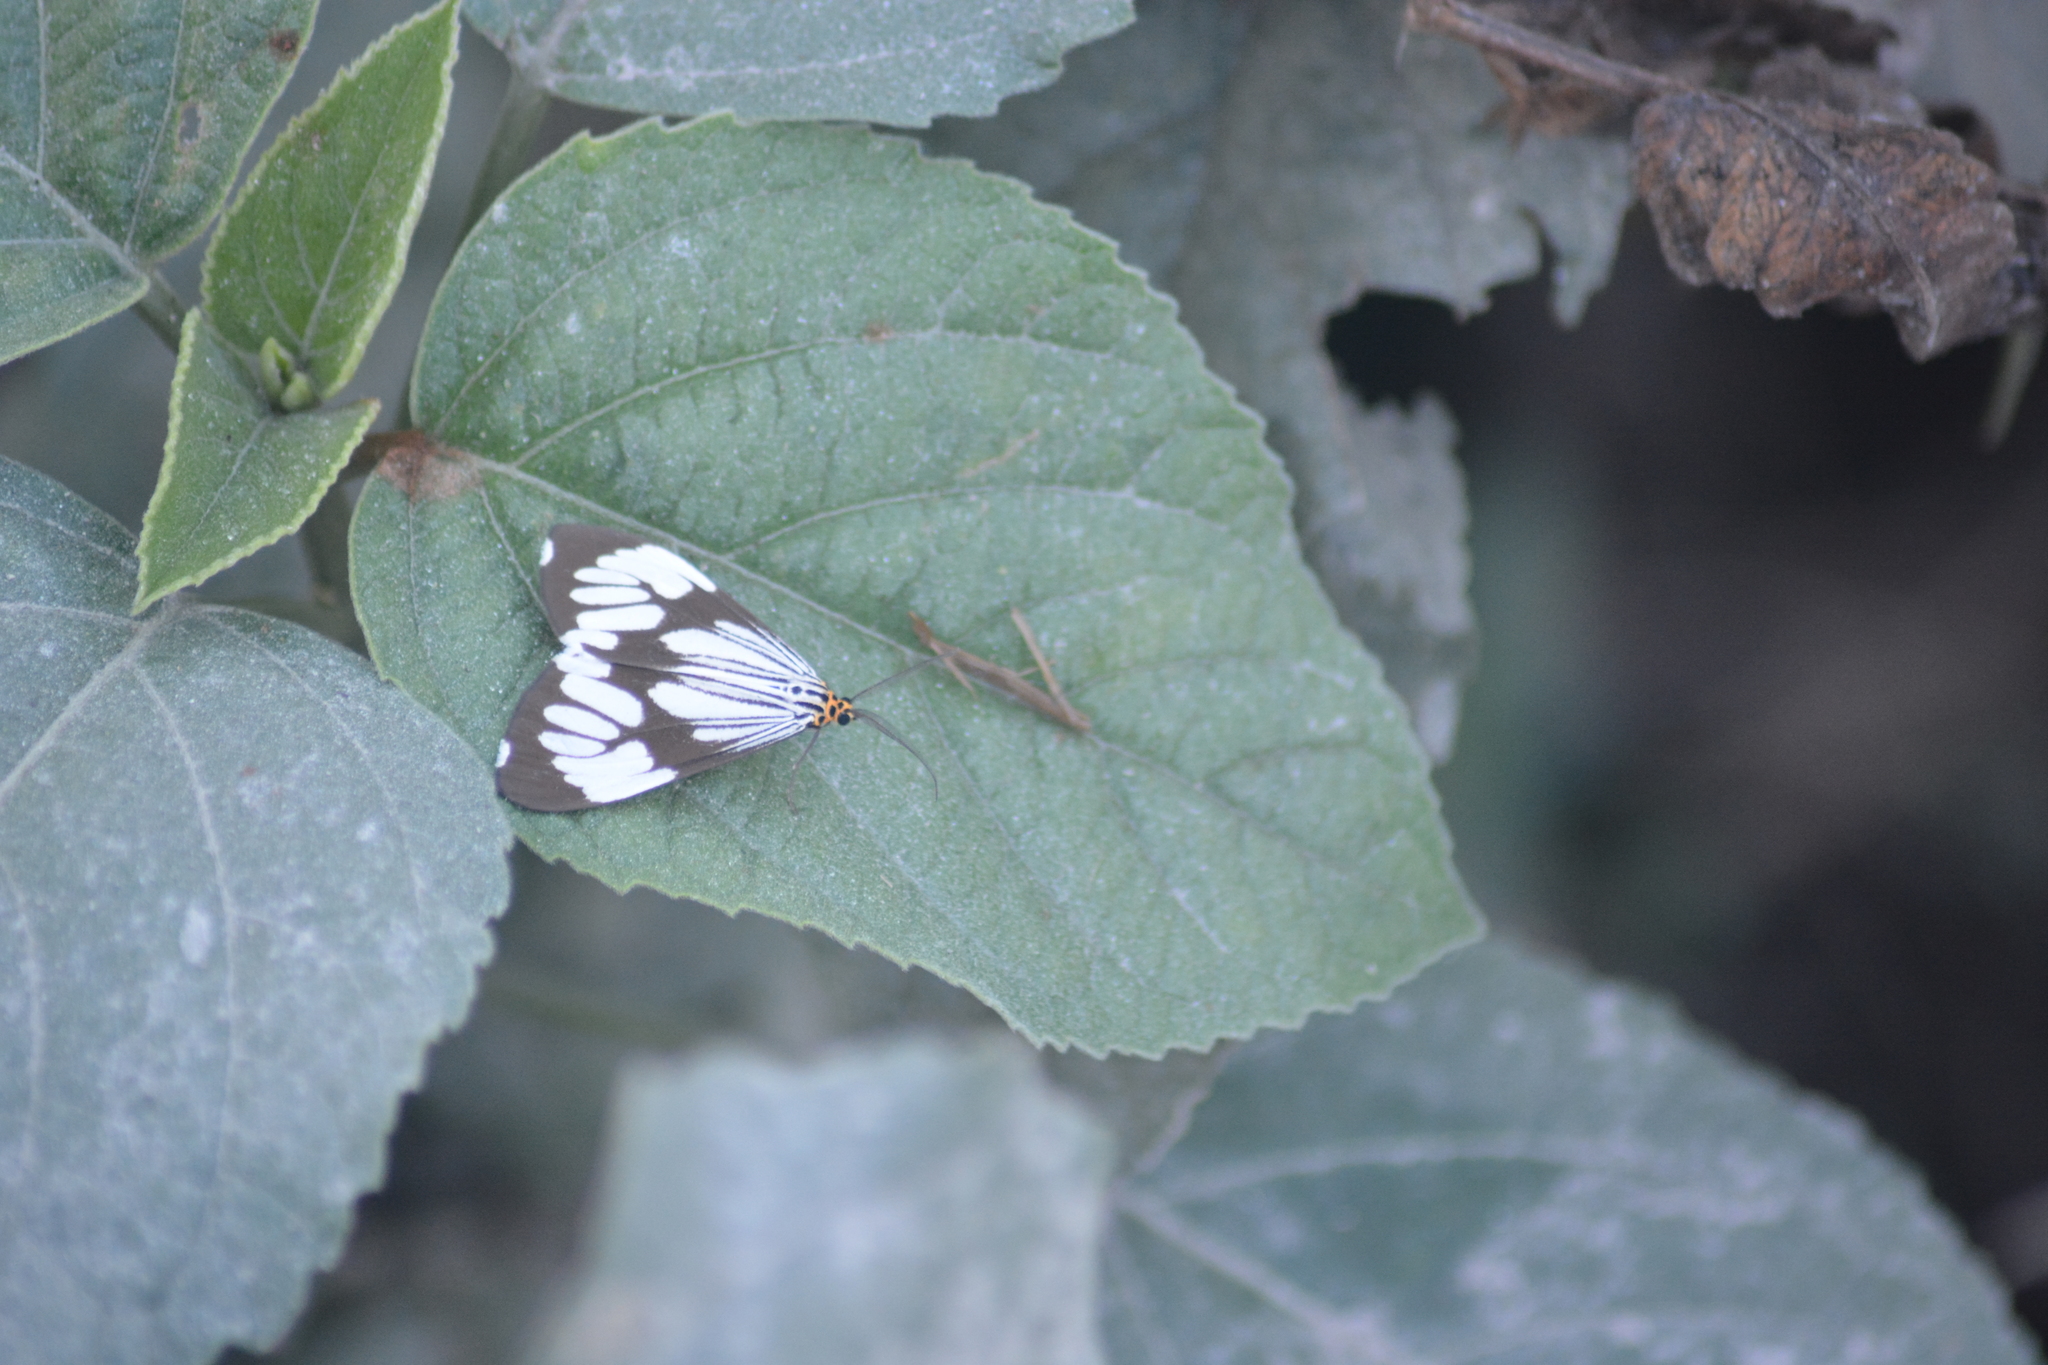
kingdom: Animalia
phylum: Arthropoda
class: Insecta
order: Lepidoptera
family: Erebidae
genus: Nyctemera
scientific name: Nyctemera coleta
